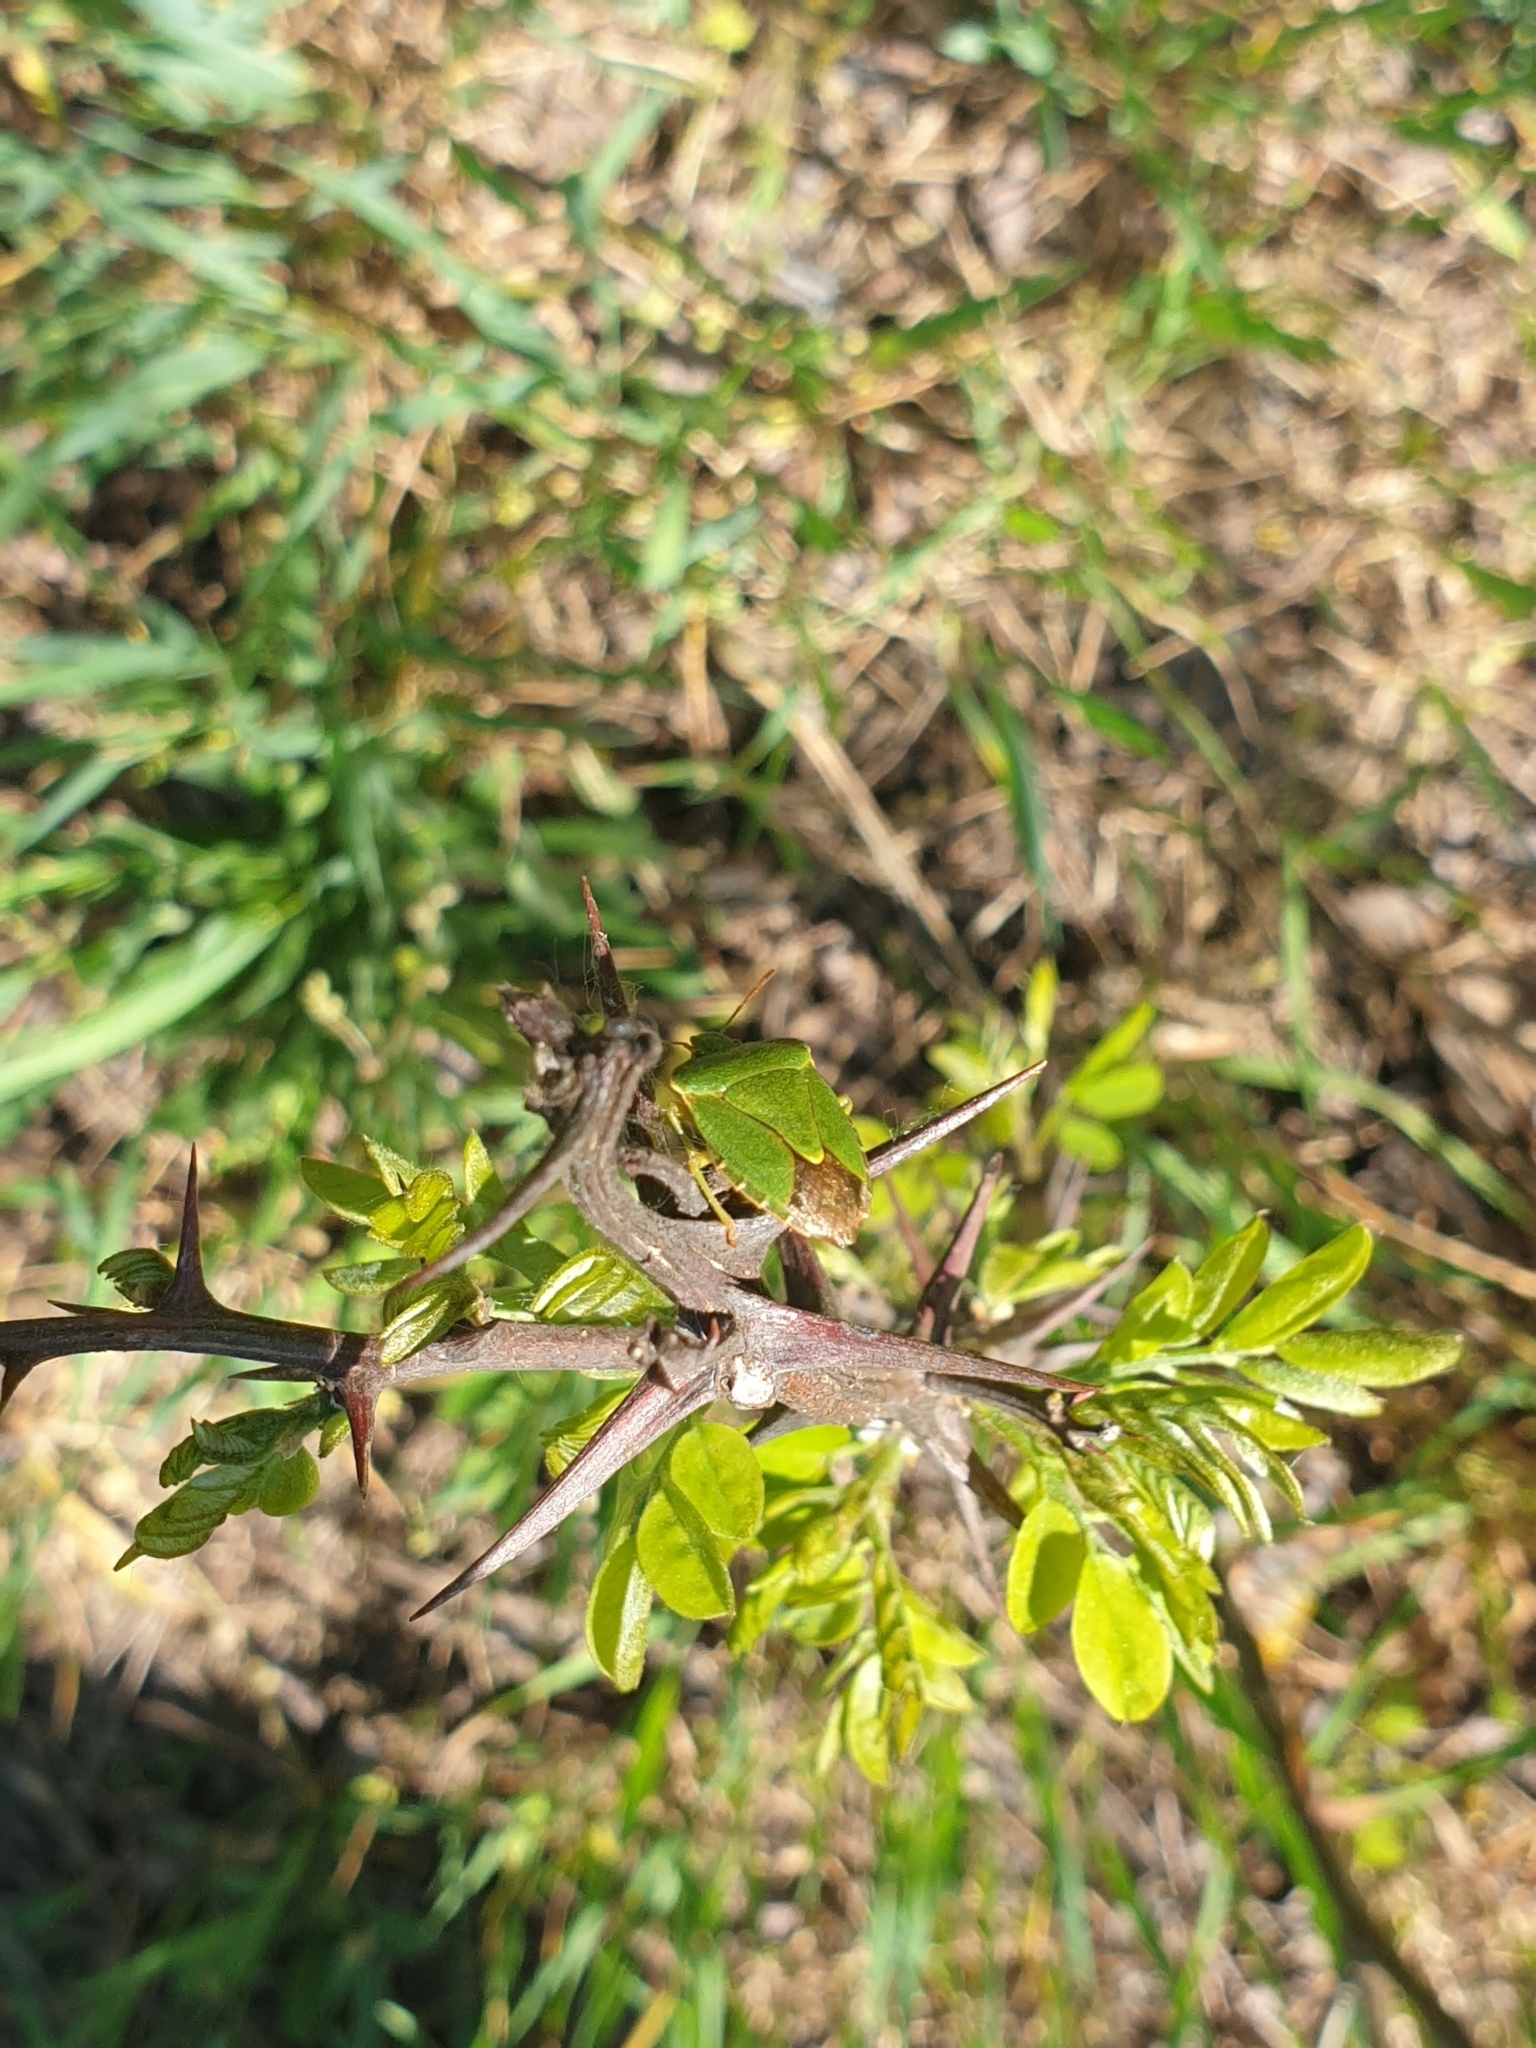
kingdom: Animalia
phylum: Arthropoda
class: Insecta
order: Hemiptera
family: Pentatomidae
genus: Palomena
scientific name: Palomena prasina
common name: Green shieldbug
